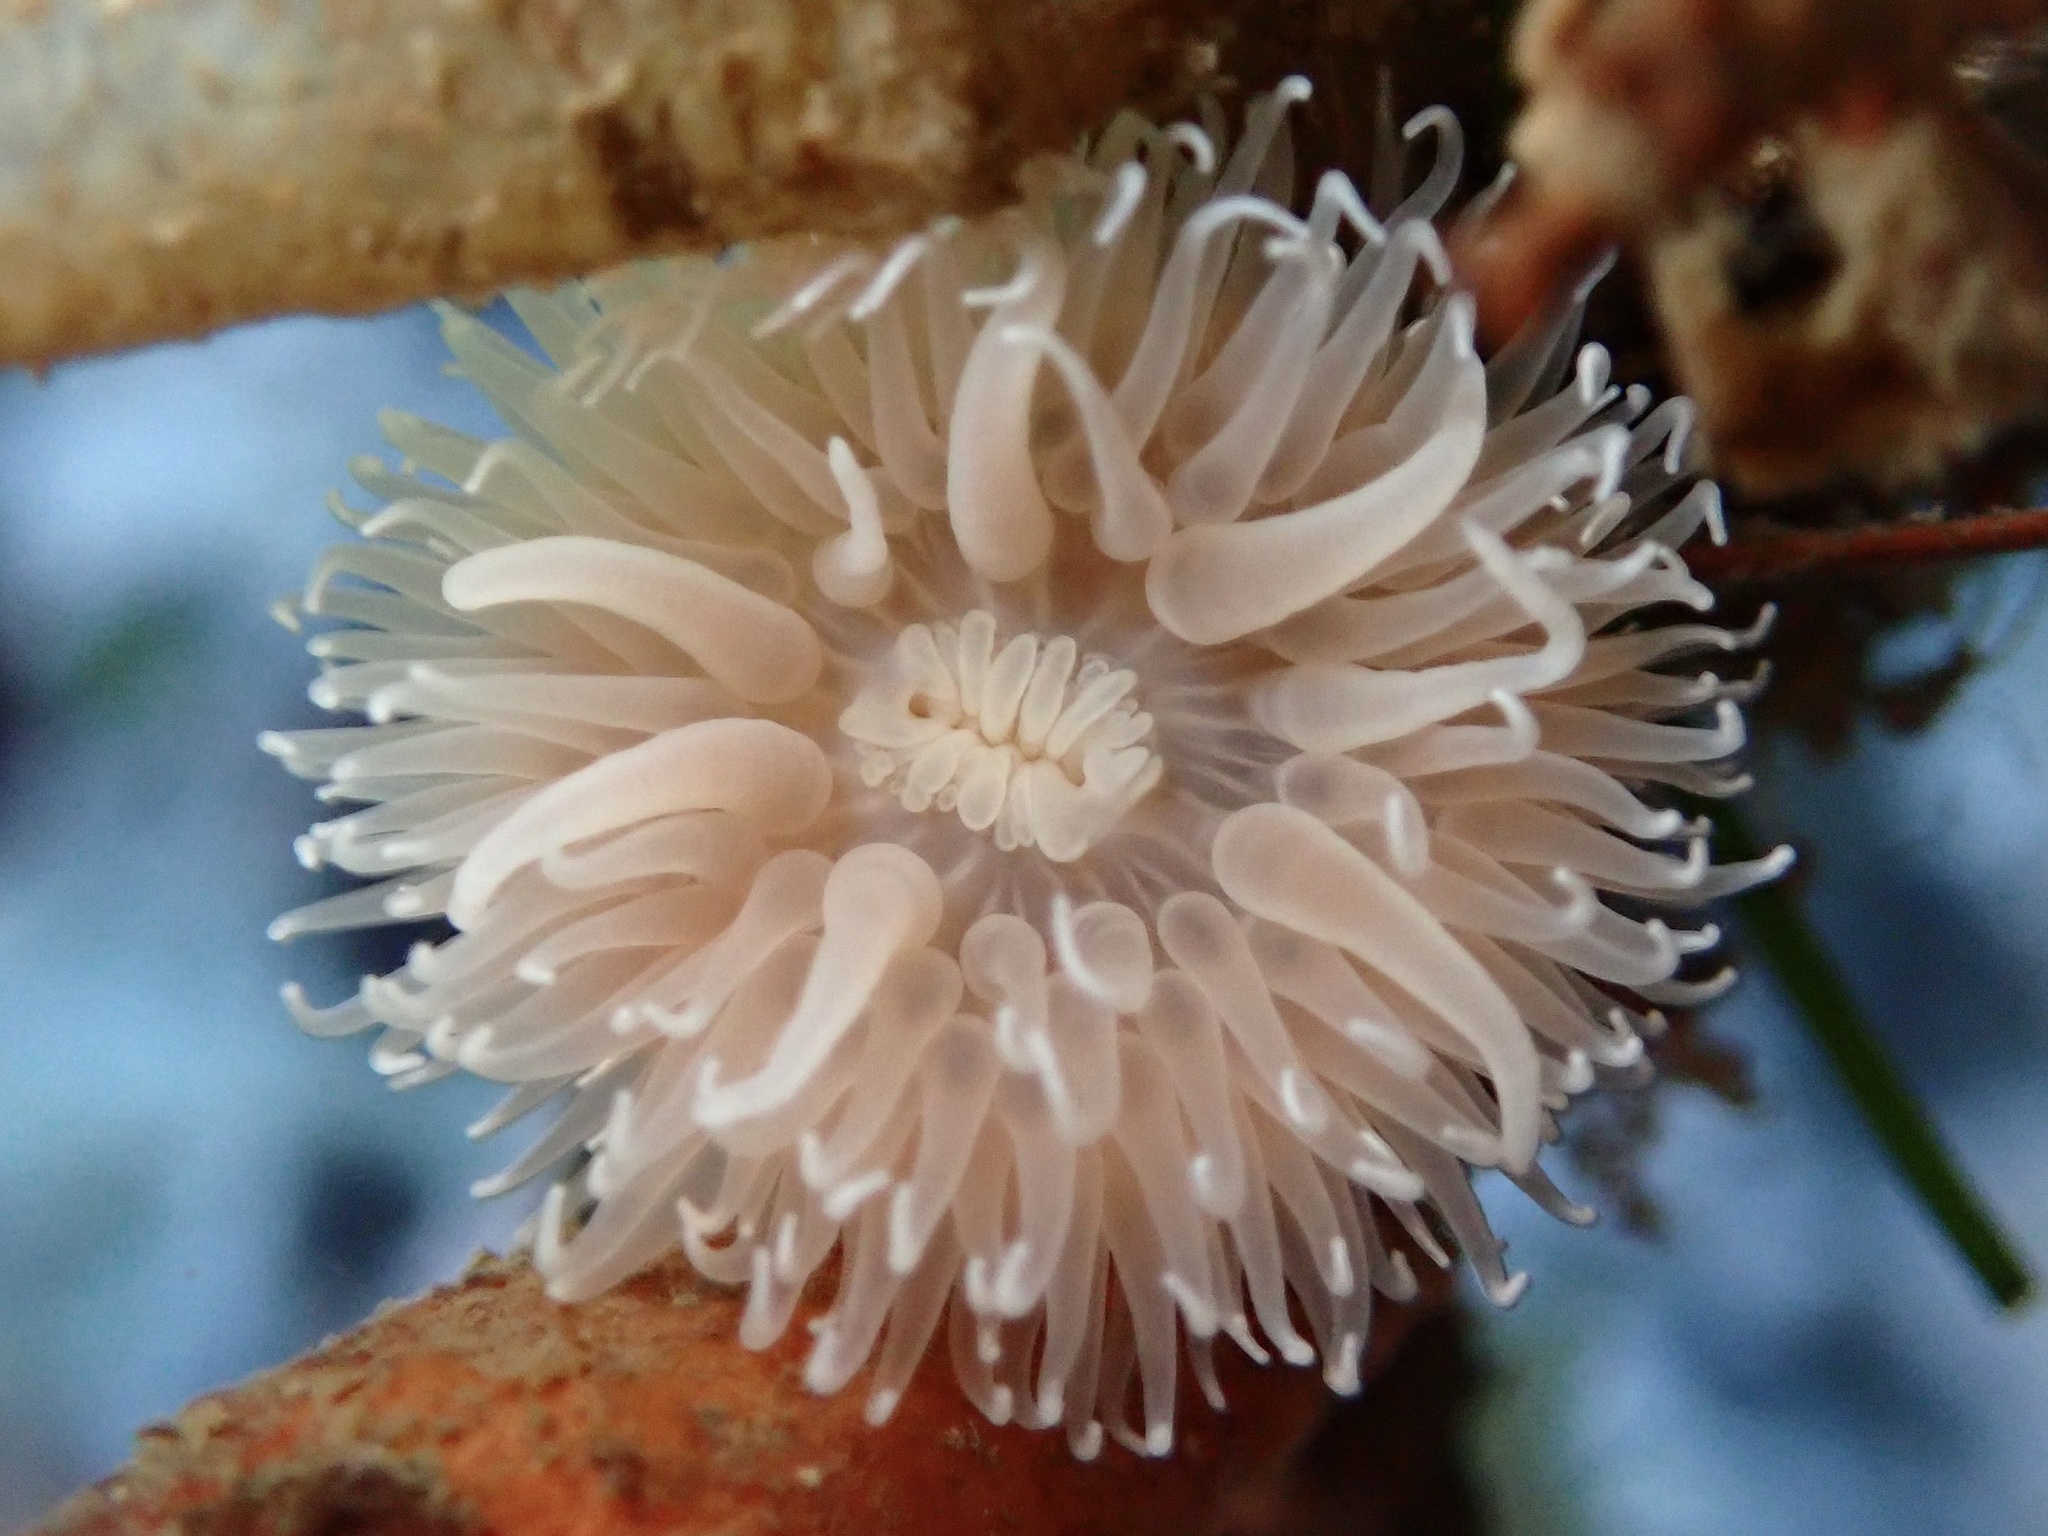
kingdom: Animalia
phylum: Cnidaria
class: Anthozoa
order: Actiniaria
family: Metridiidae
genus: Metridium
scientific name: Metridium senile
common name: Clonal plumose anemone
